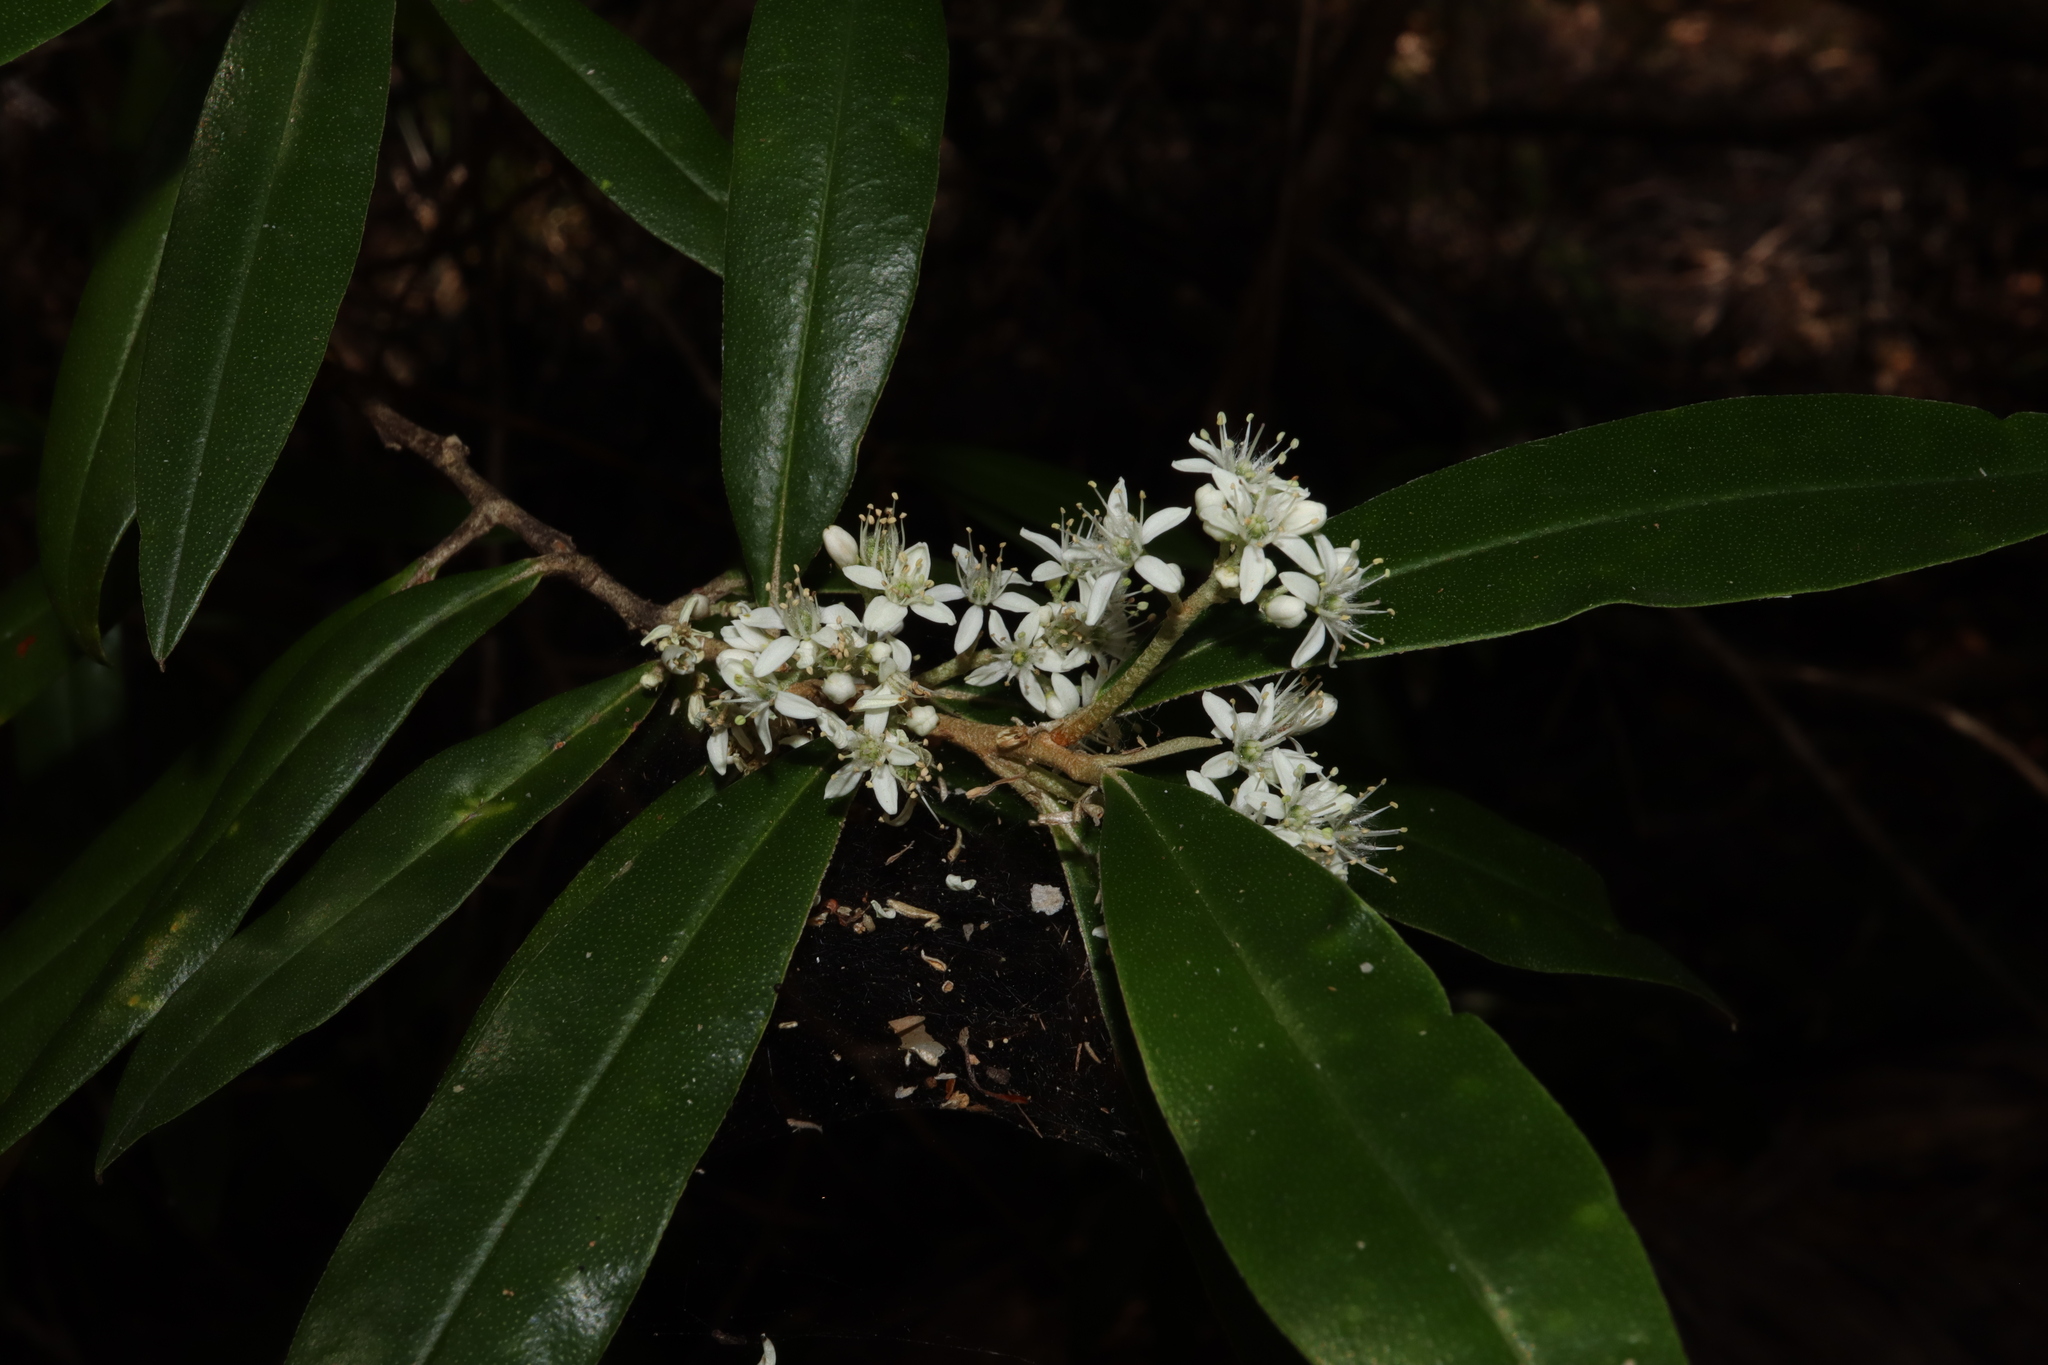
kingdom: Plantae
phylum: Tracheophyta
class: Magnoliopsida
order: Sapindales
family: Rutaceae
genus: Nematolepis
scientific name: Nematolepis squamea
